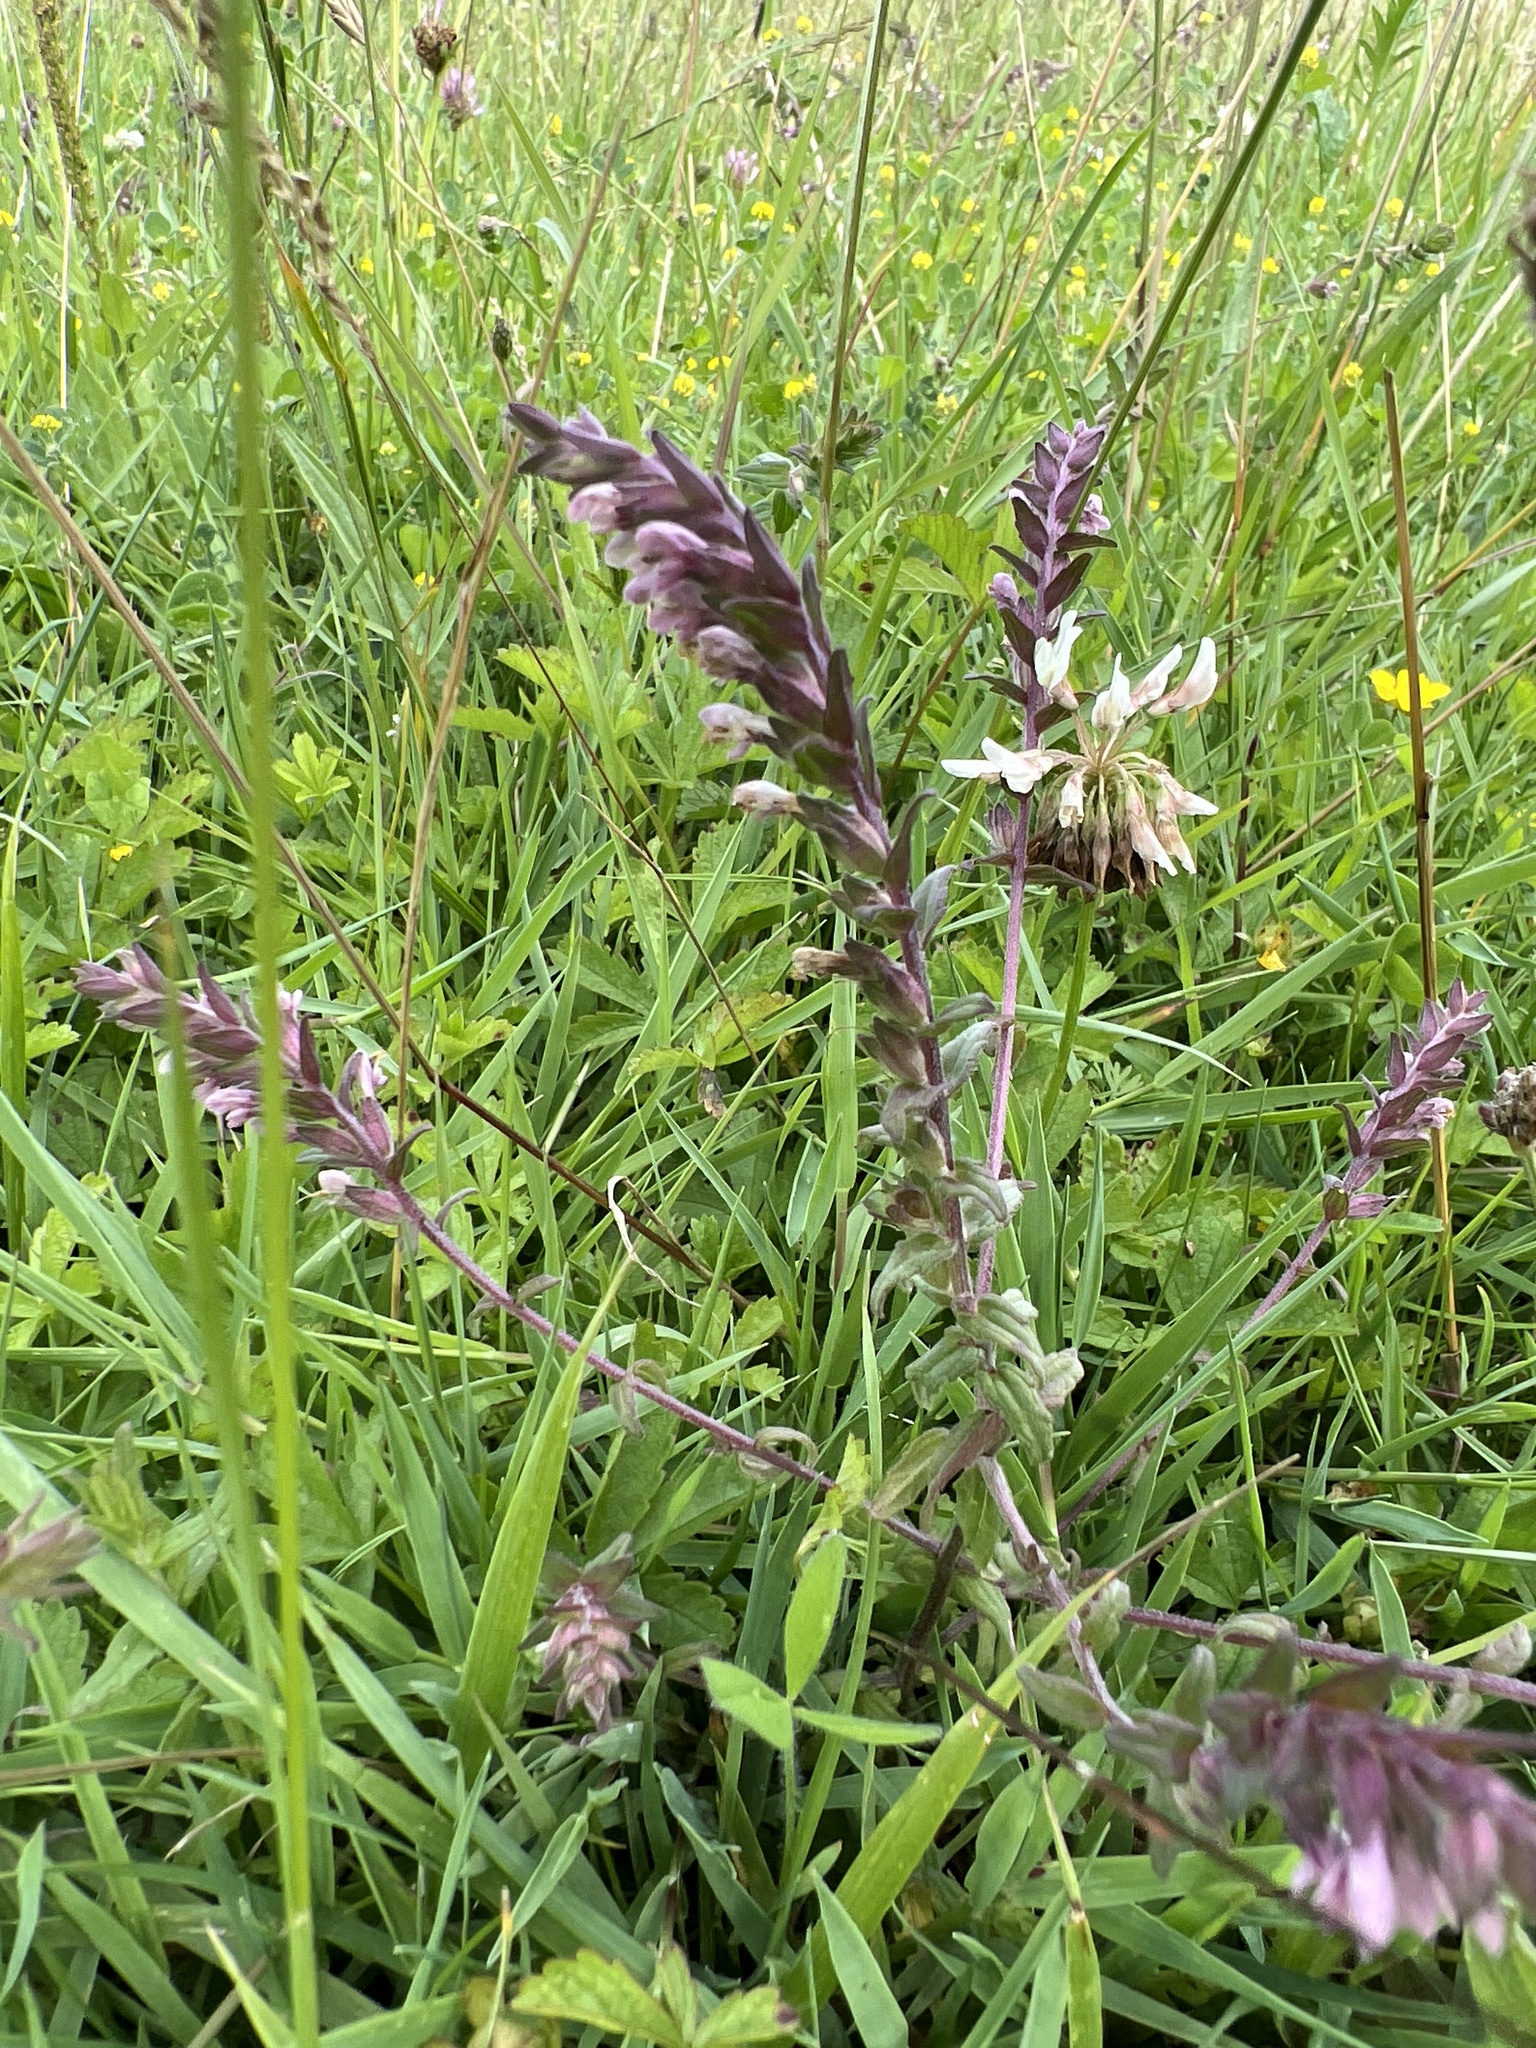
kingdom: Plantae
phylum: Tracheophyta
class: Magnoliopsida
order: Lamiales
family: Orobanchaceae
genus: Odontites
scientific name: Odontites vernus
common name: Red bartsia
